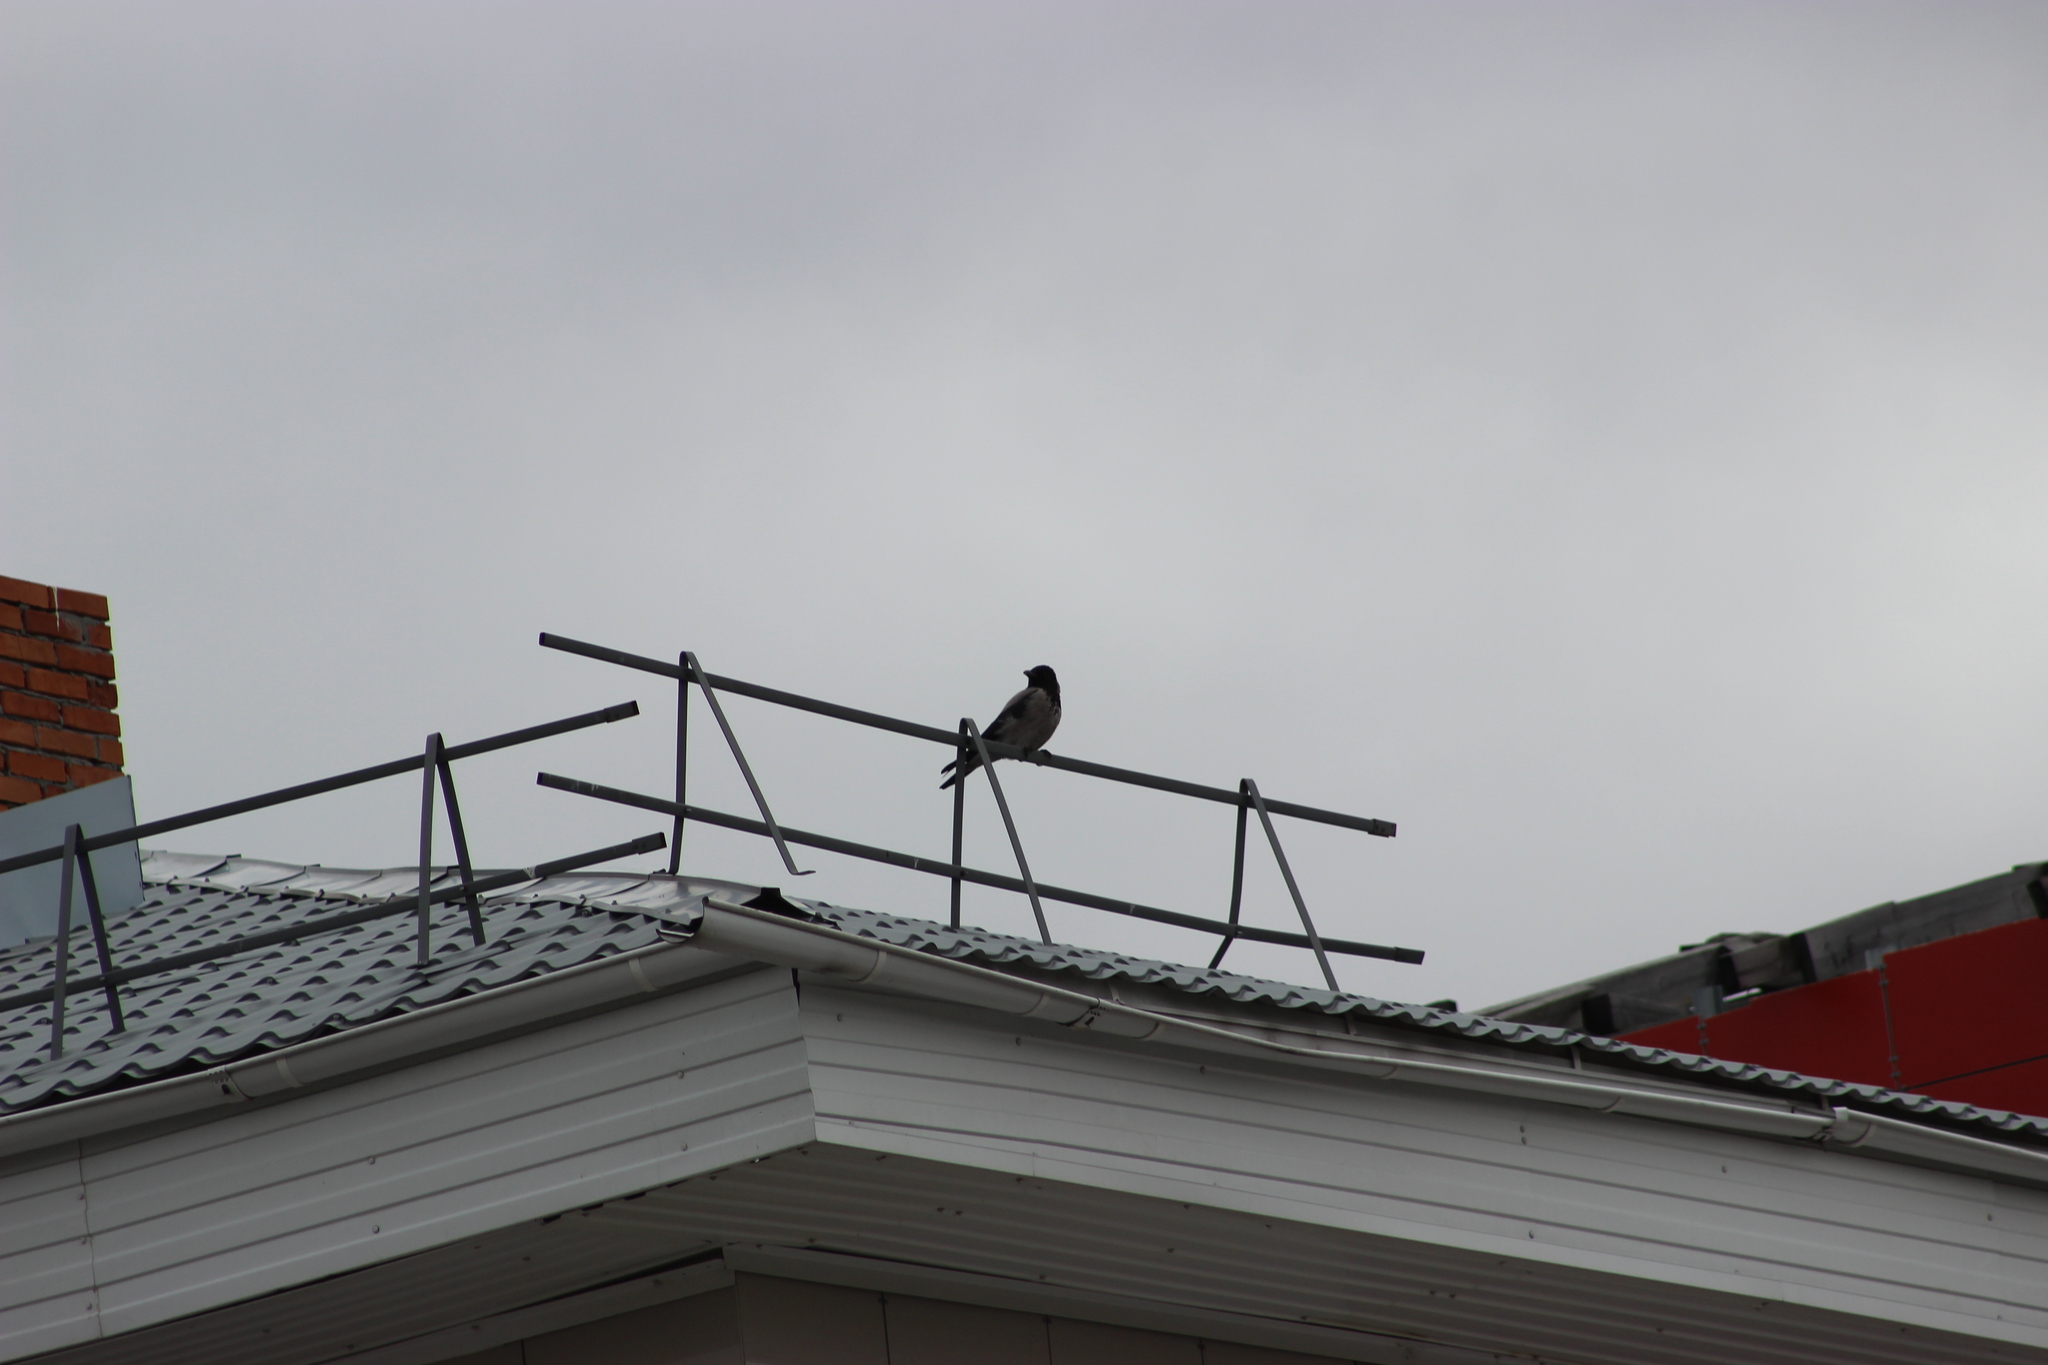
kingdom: Animalia
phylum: Chordata
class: Aves
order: Passeriformes
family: Corvidae
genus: Corvus
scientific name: Corvus cornix
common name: Hooded crow
